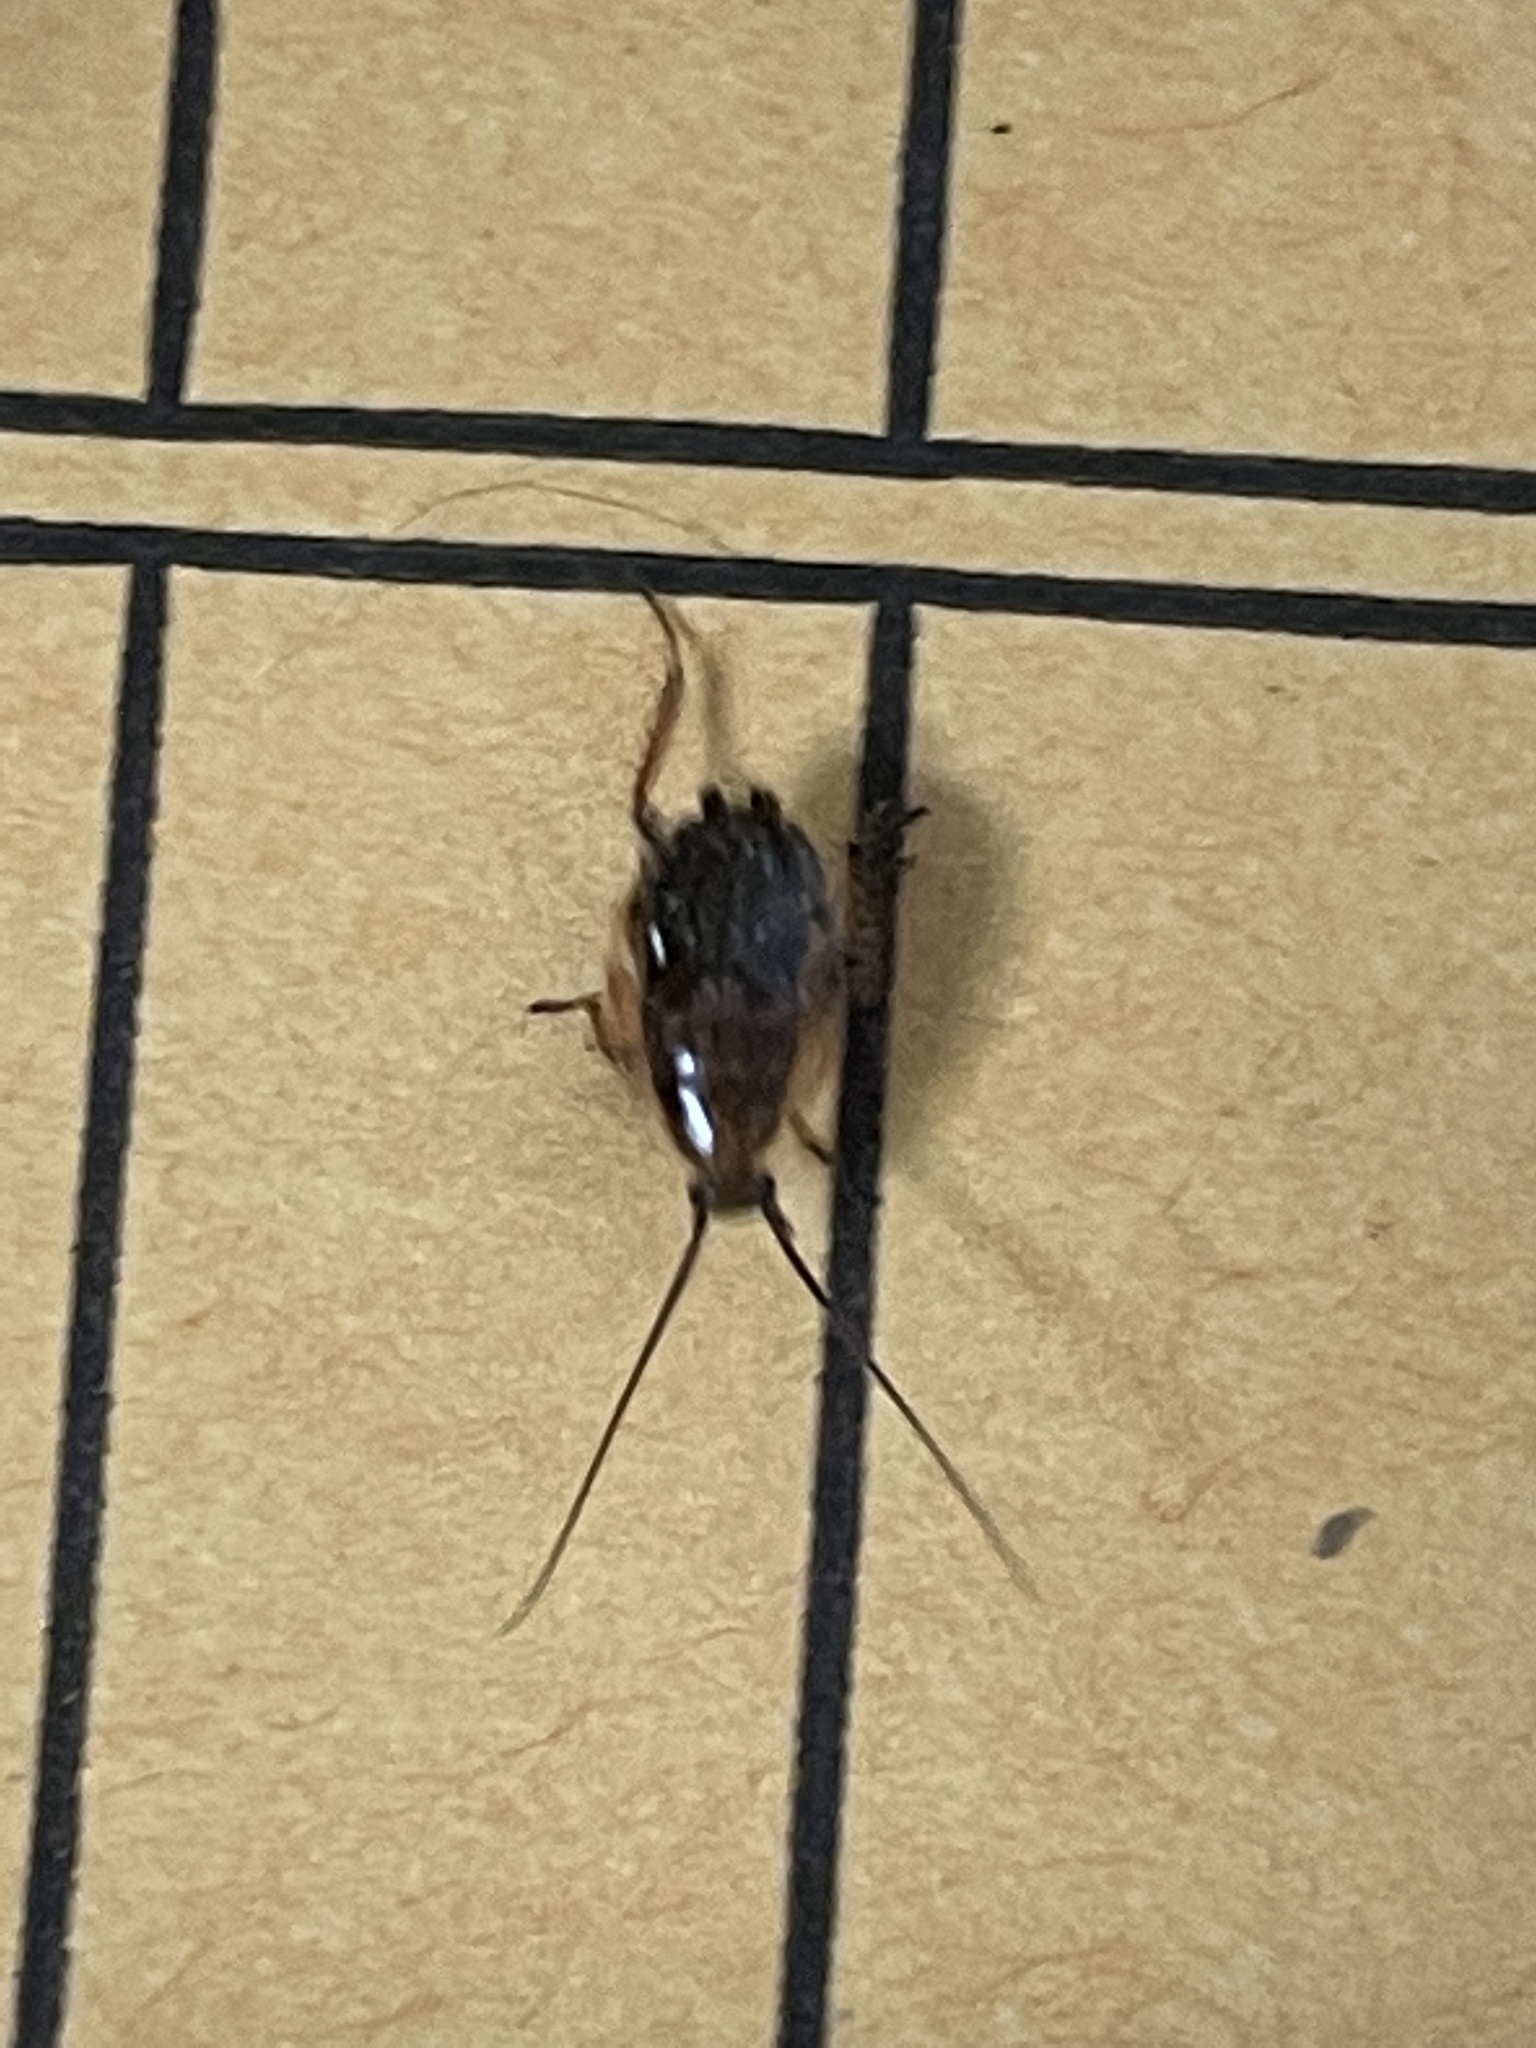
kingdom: Animalia
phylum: Arthropoda
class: Insecta
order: Blattodea
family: Ectobiidae
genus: Ectobius
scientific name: Ectobius lapponicus
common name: Dusky cockroach
